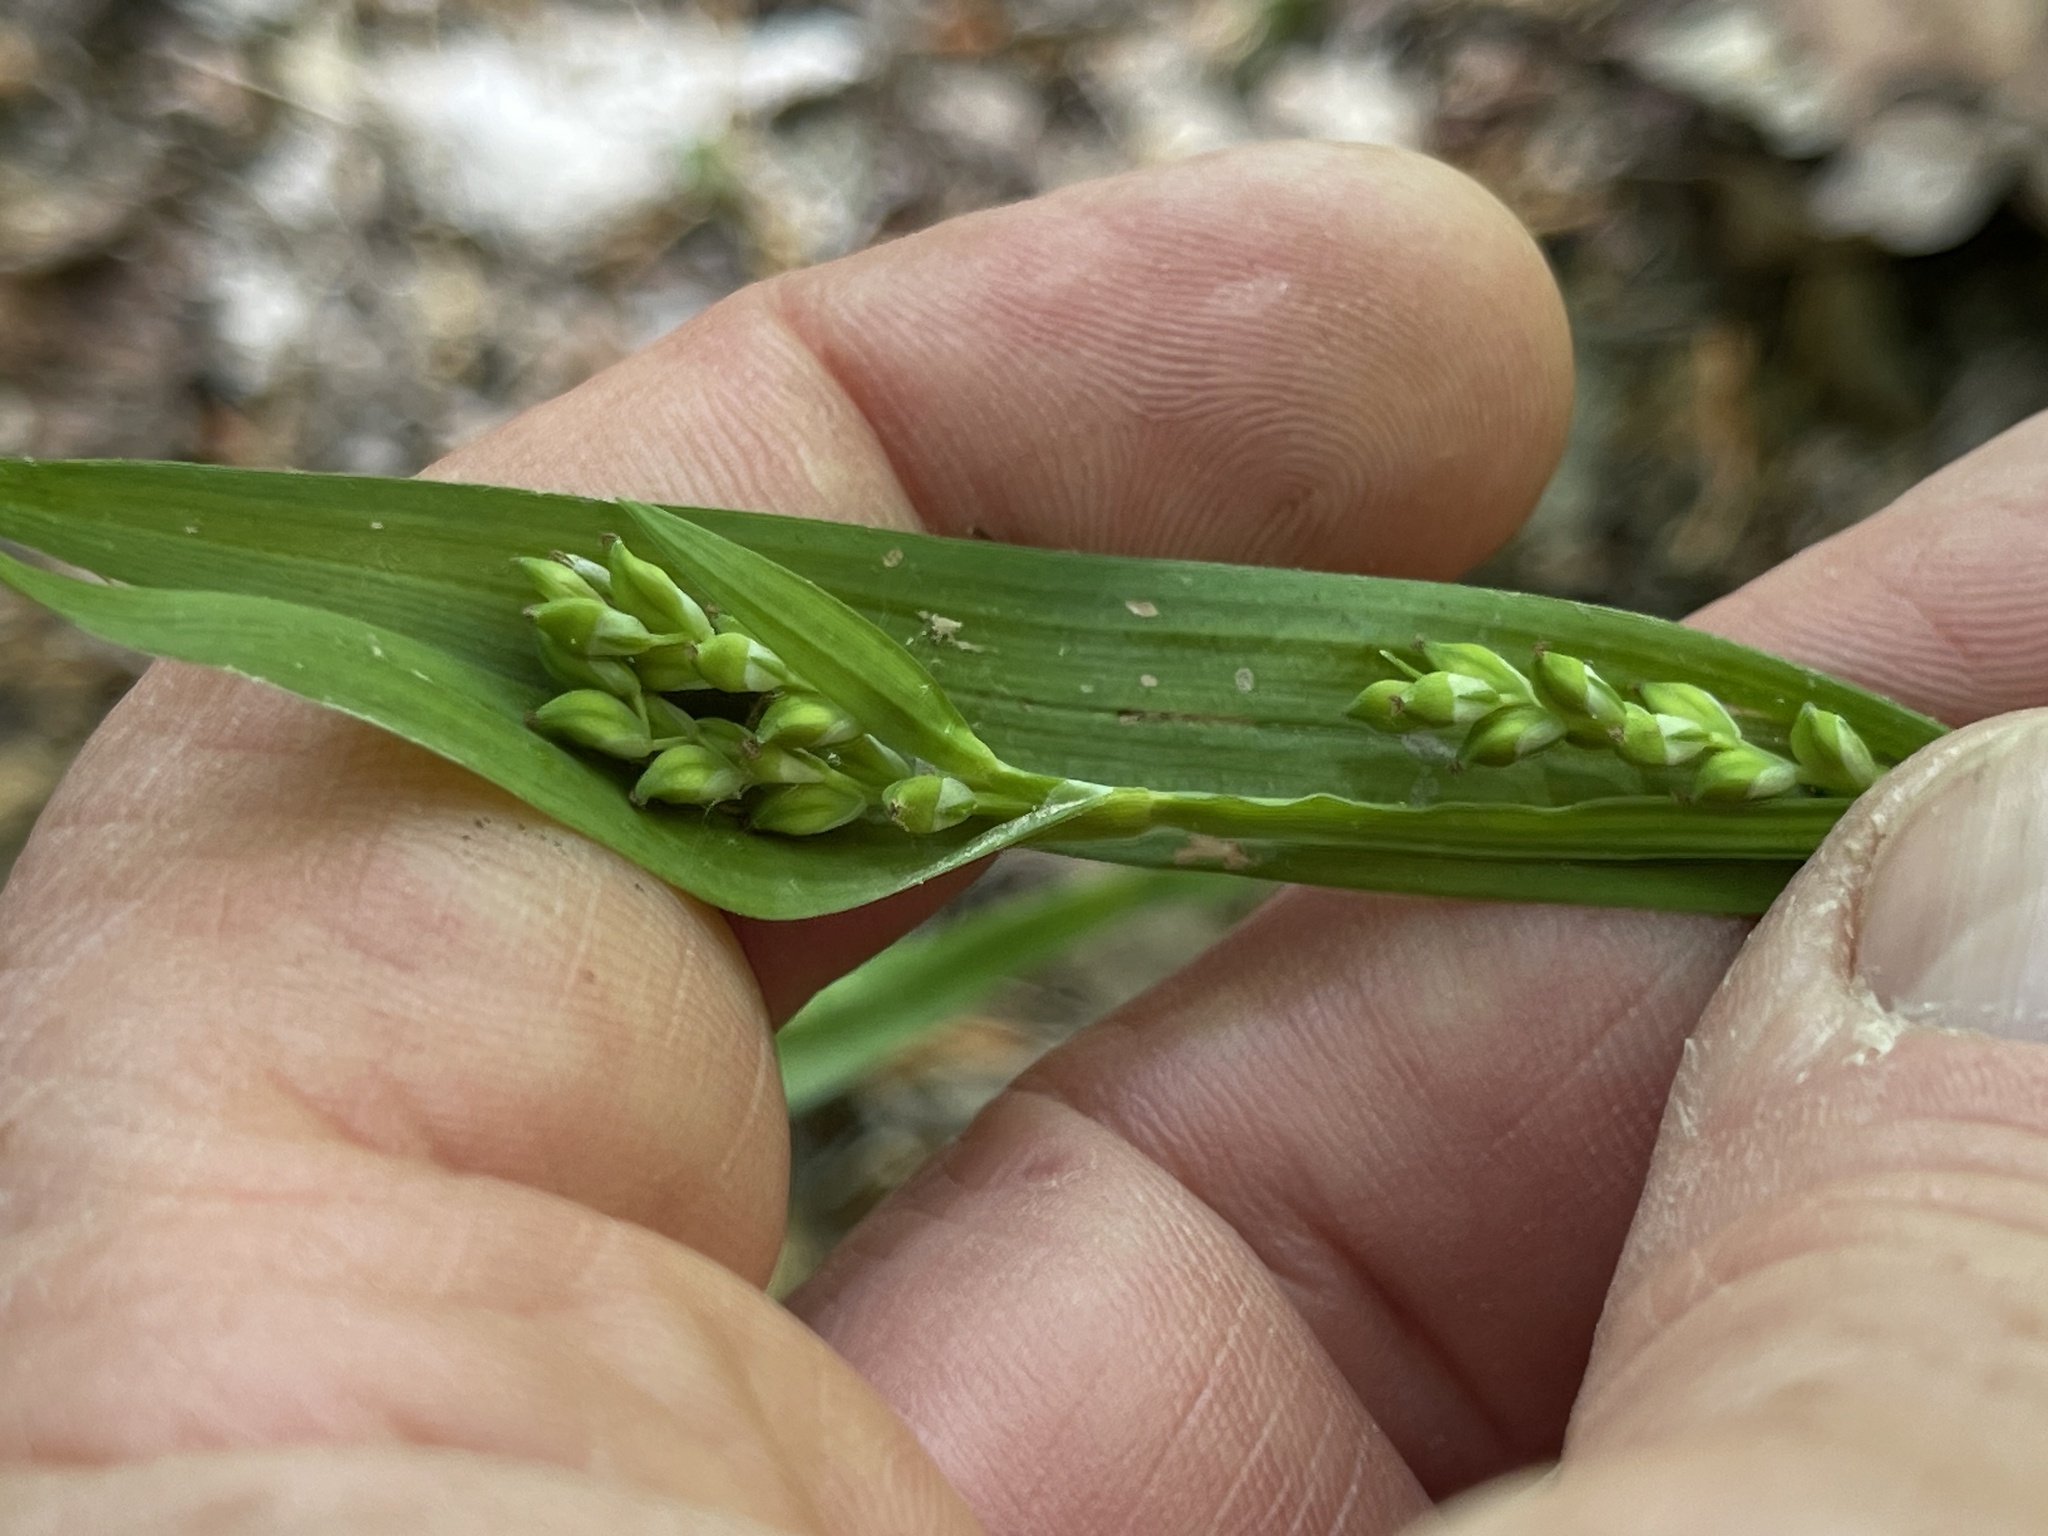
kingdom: Plantae
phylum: Tracheophyta
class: Liliopsida
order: Poales
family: Cyperaceae
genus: Carex
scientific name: Carex albursina
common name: Blunt-scale wood sedge
